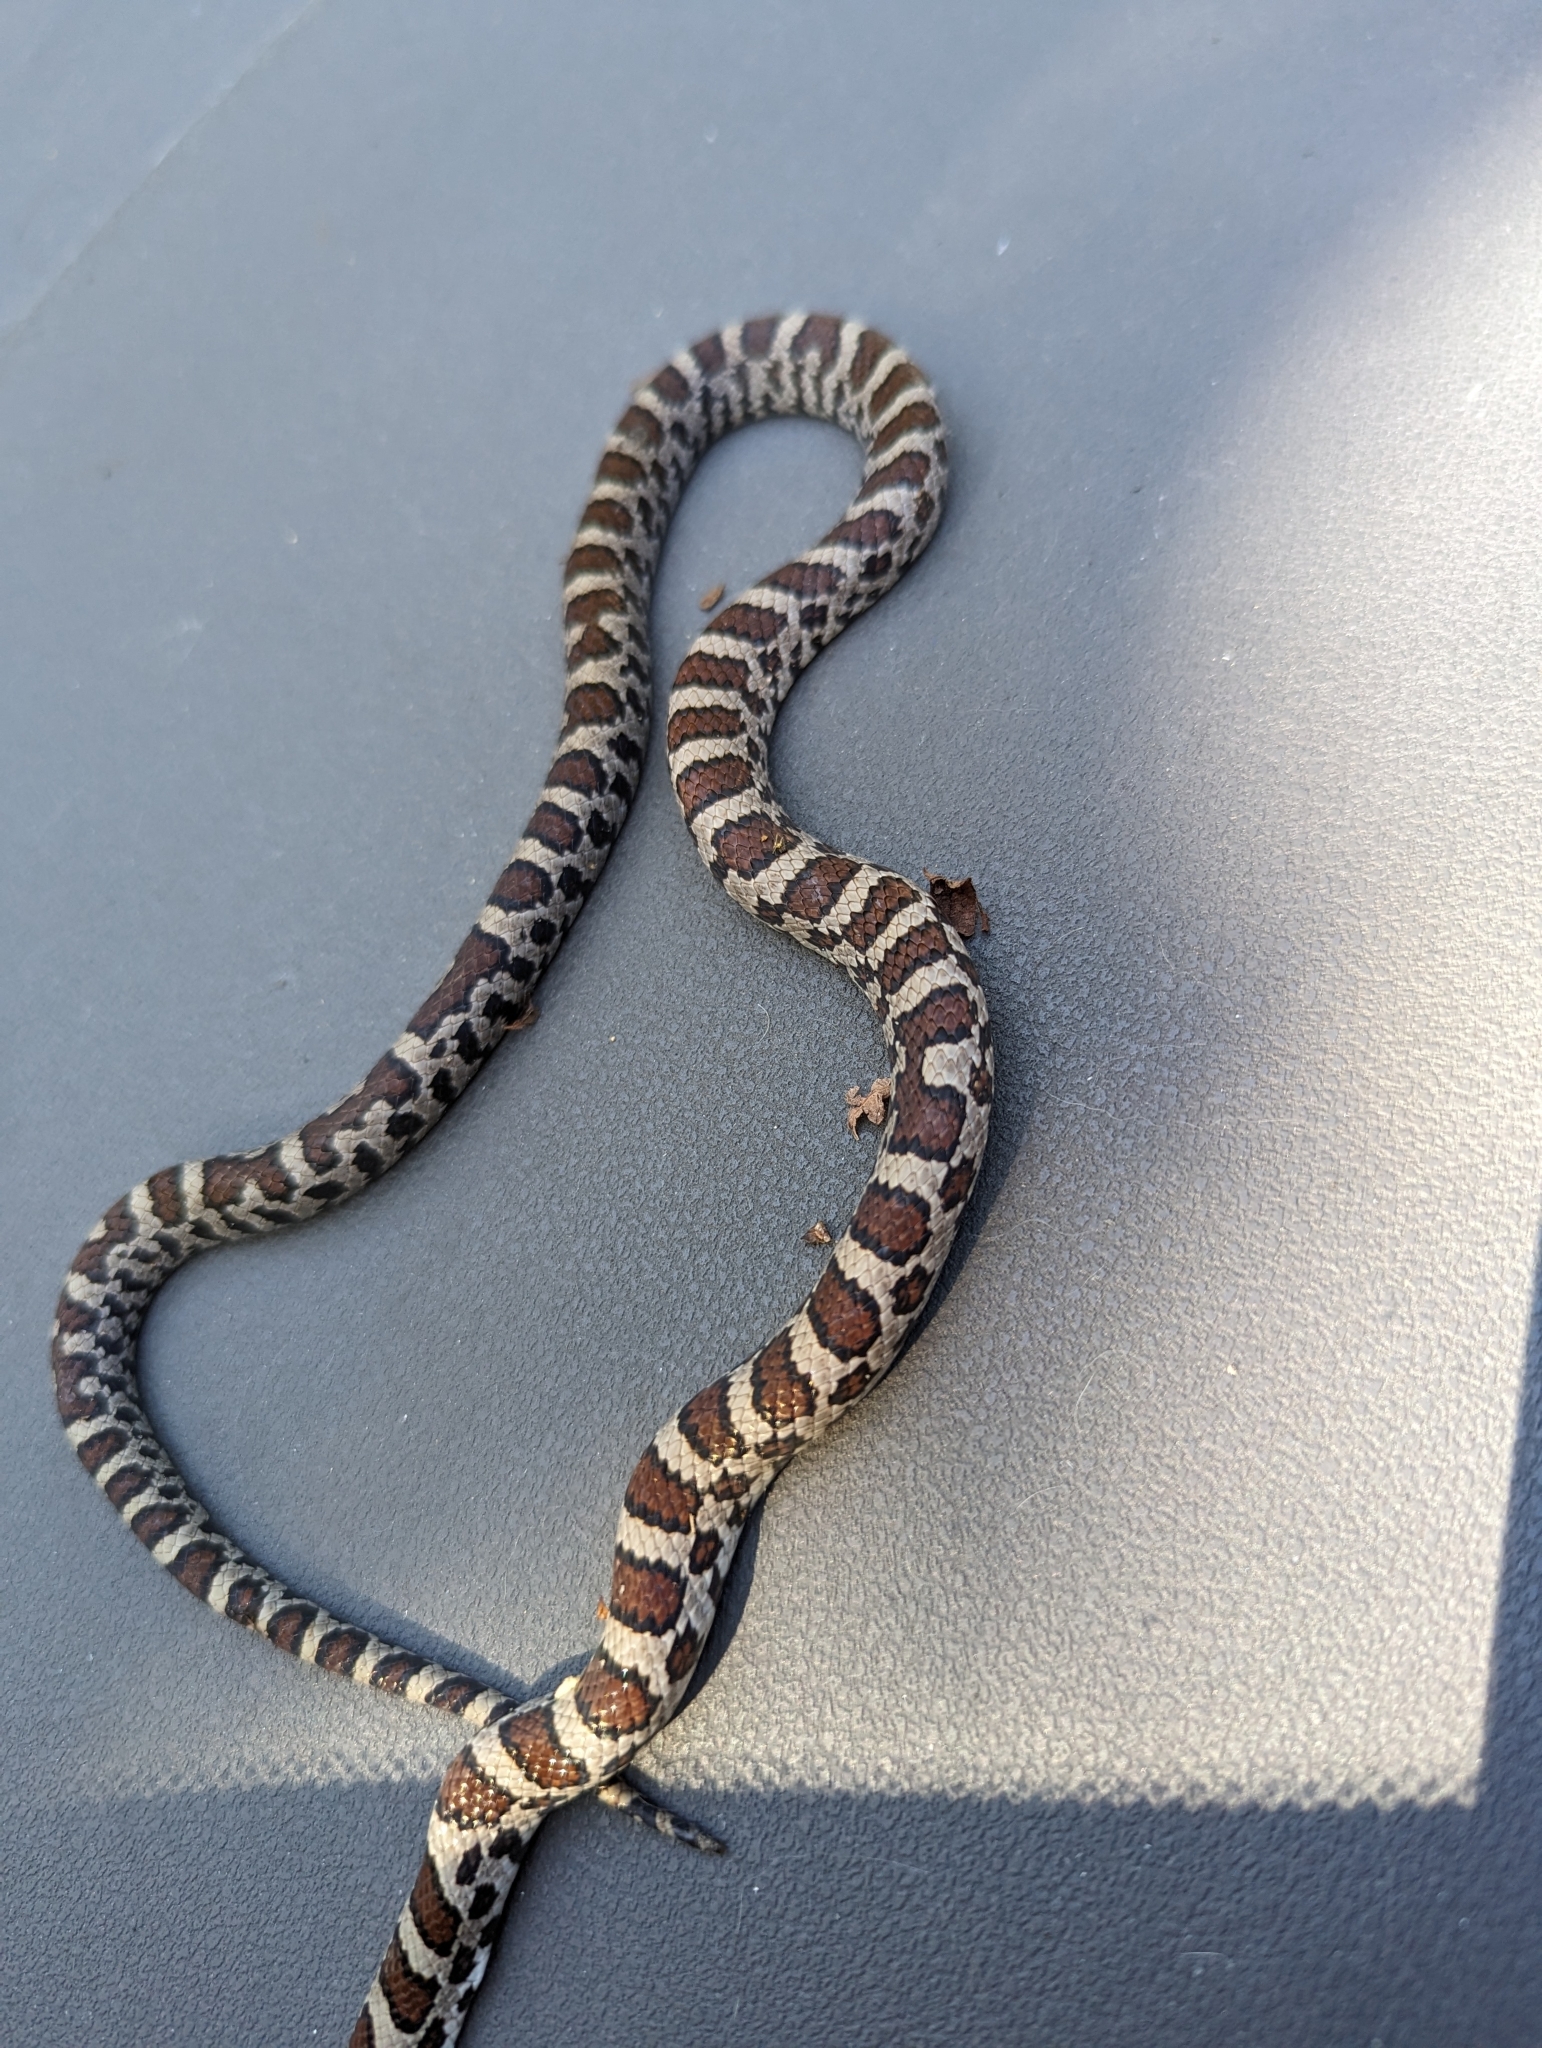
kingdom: Animalia
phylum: Chordata
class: Squamata
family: Colubridae
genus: Lampropeltis
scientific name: Lampropeltis triangulum
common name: Eastern milksnake
